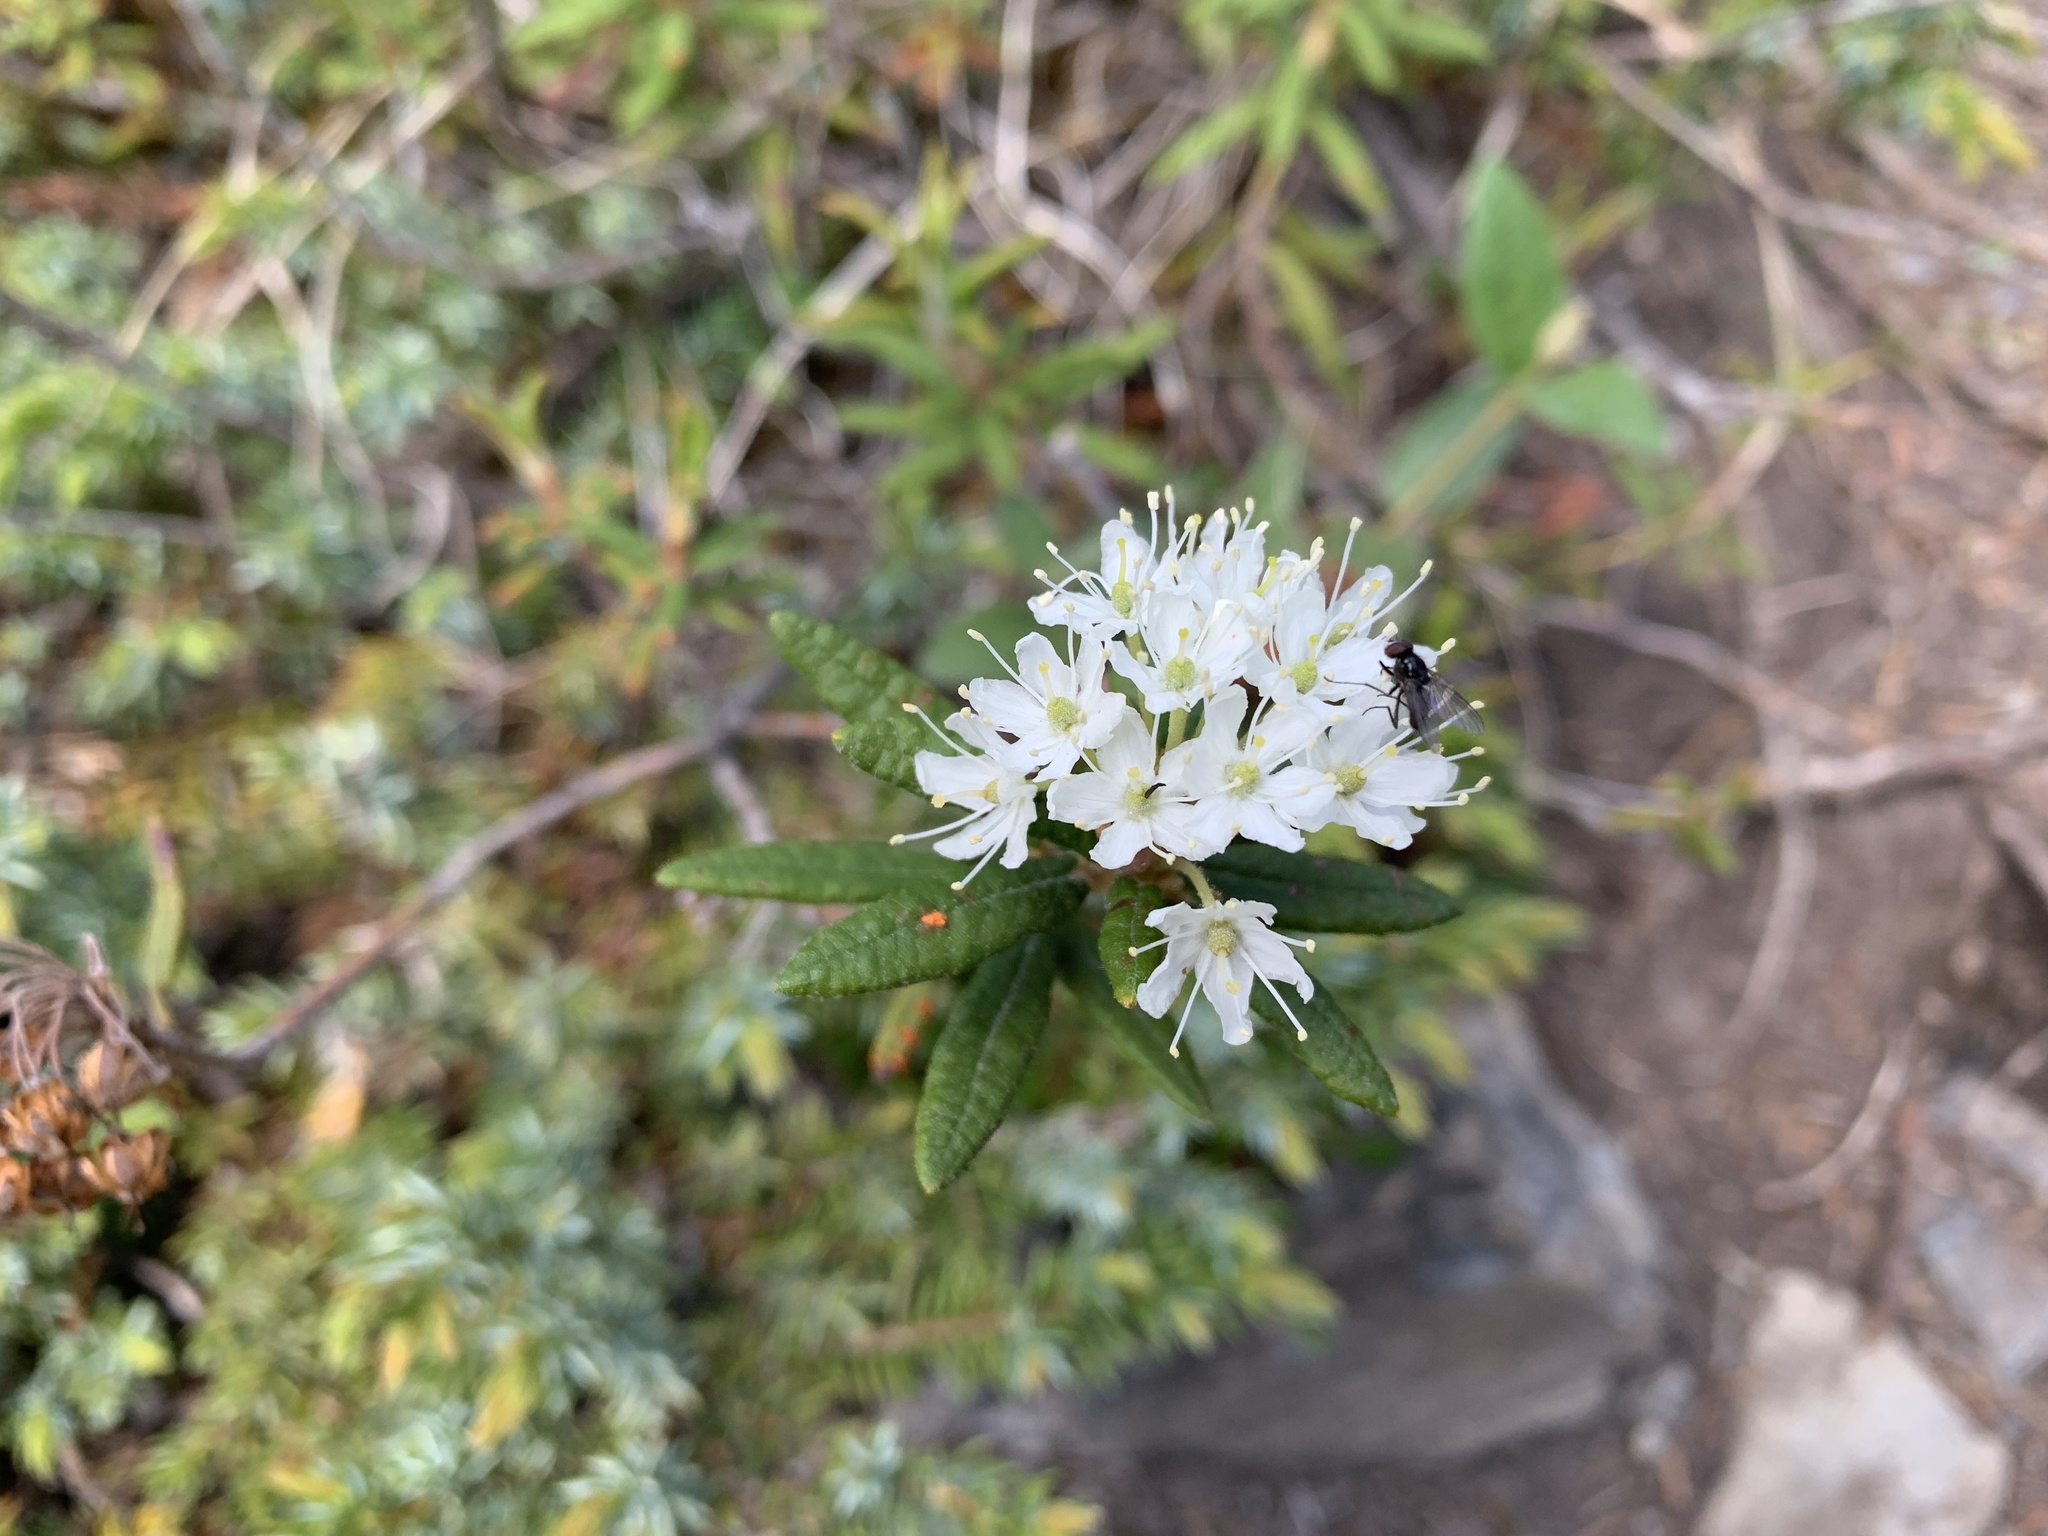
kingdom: Plantae
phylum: Tracheophyta
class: Magnoliopsida
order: Ericales
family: Ericaceae
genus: Rhododendron
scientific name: Rhododendron groenlandicum
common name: Bog labrador tea
